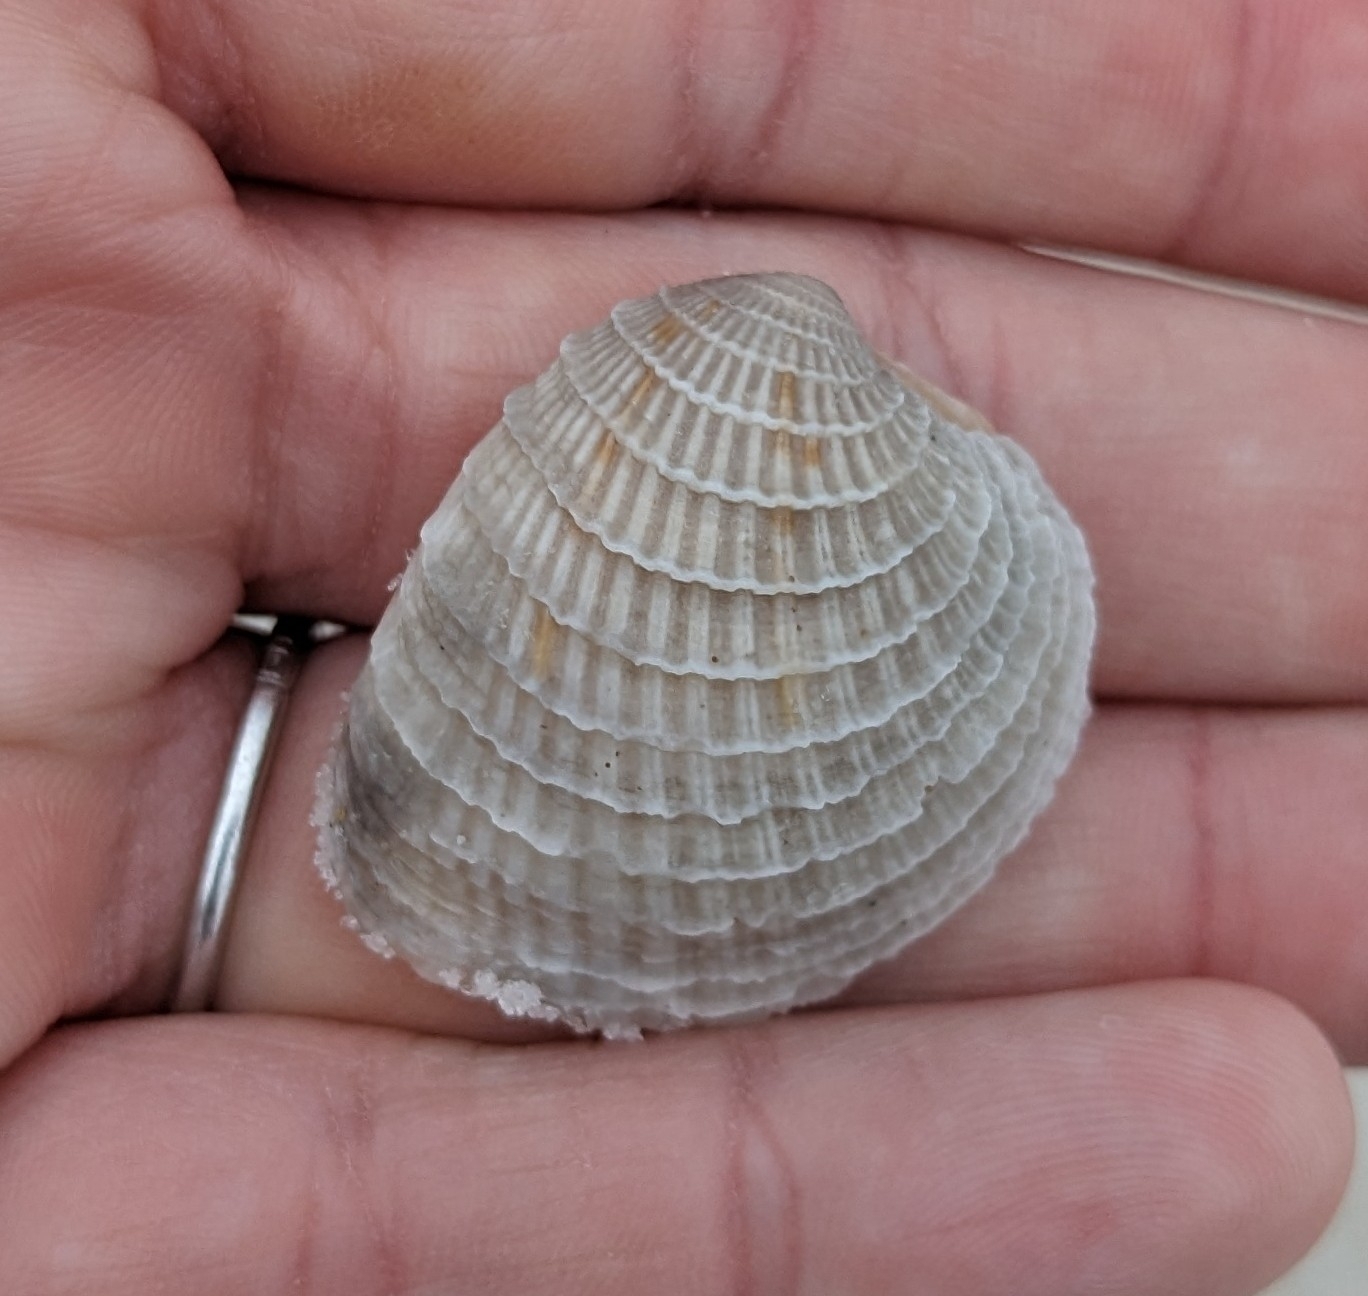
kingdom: Animalia
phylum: Mollusca
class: Bivalvia
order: Venerida
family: Veneridae
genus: Chione
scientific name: Chione elevata
